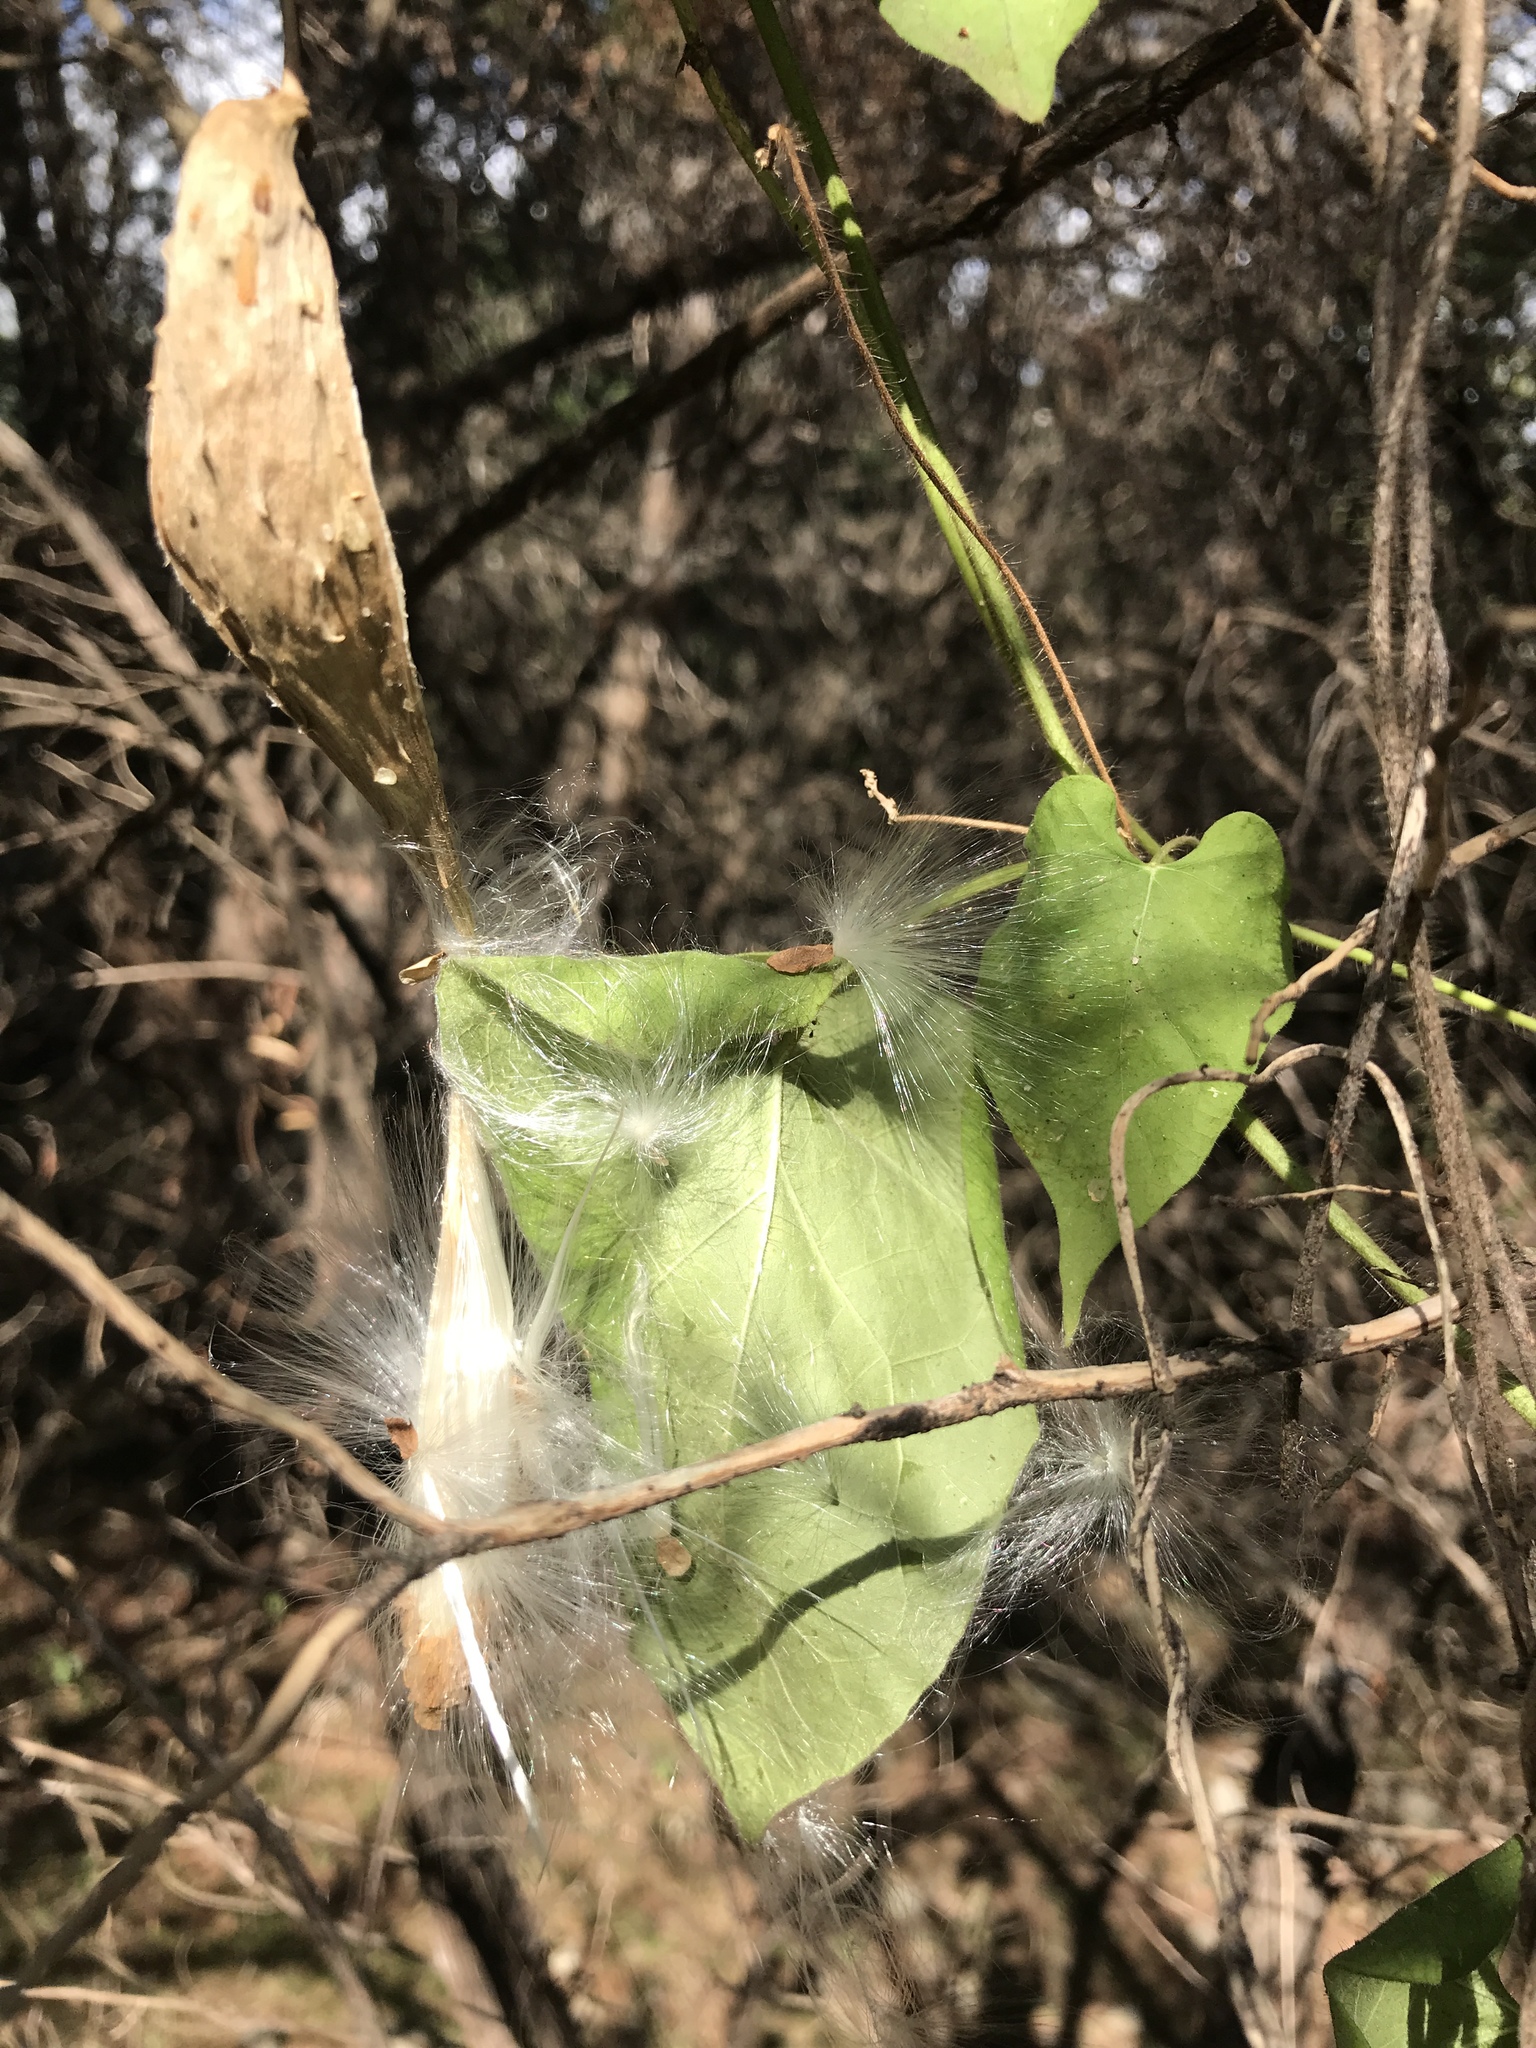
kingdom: Plantae
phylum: Tracheophyta
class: Magnoliopsida
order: Gentianales
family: Apocynaceae
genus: Dictyanthus
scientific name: Dictyanthus reticulatus
